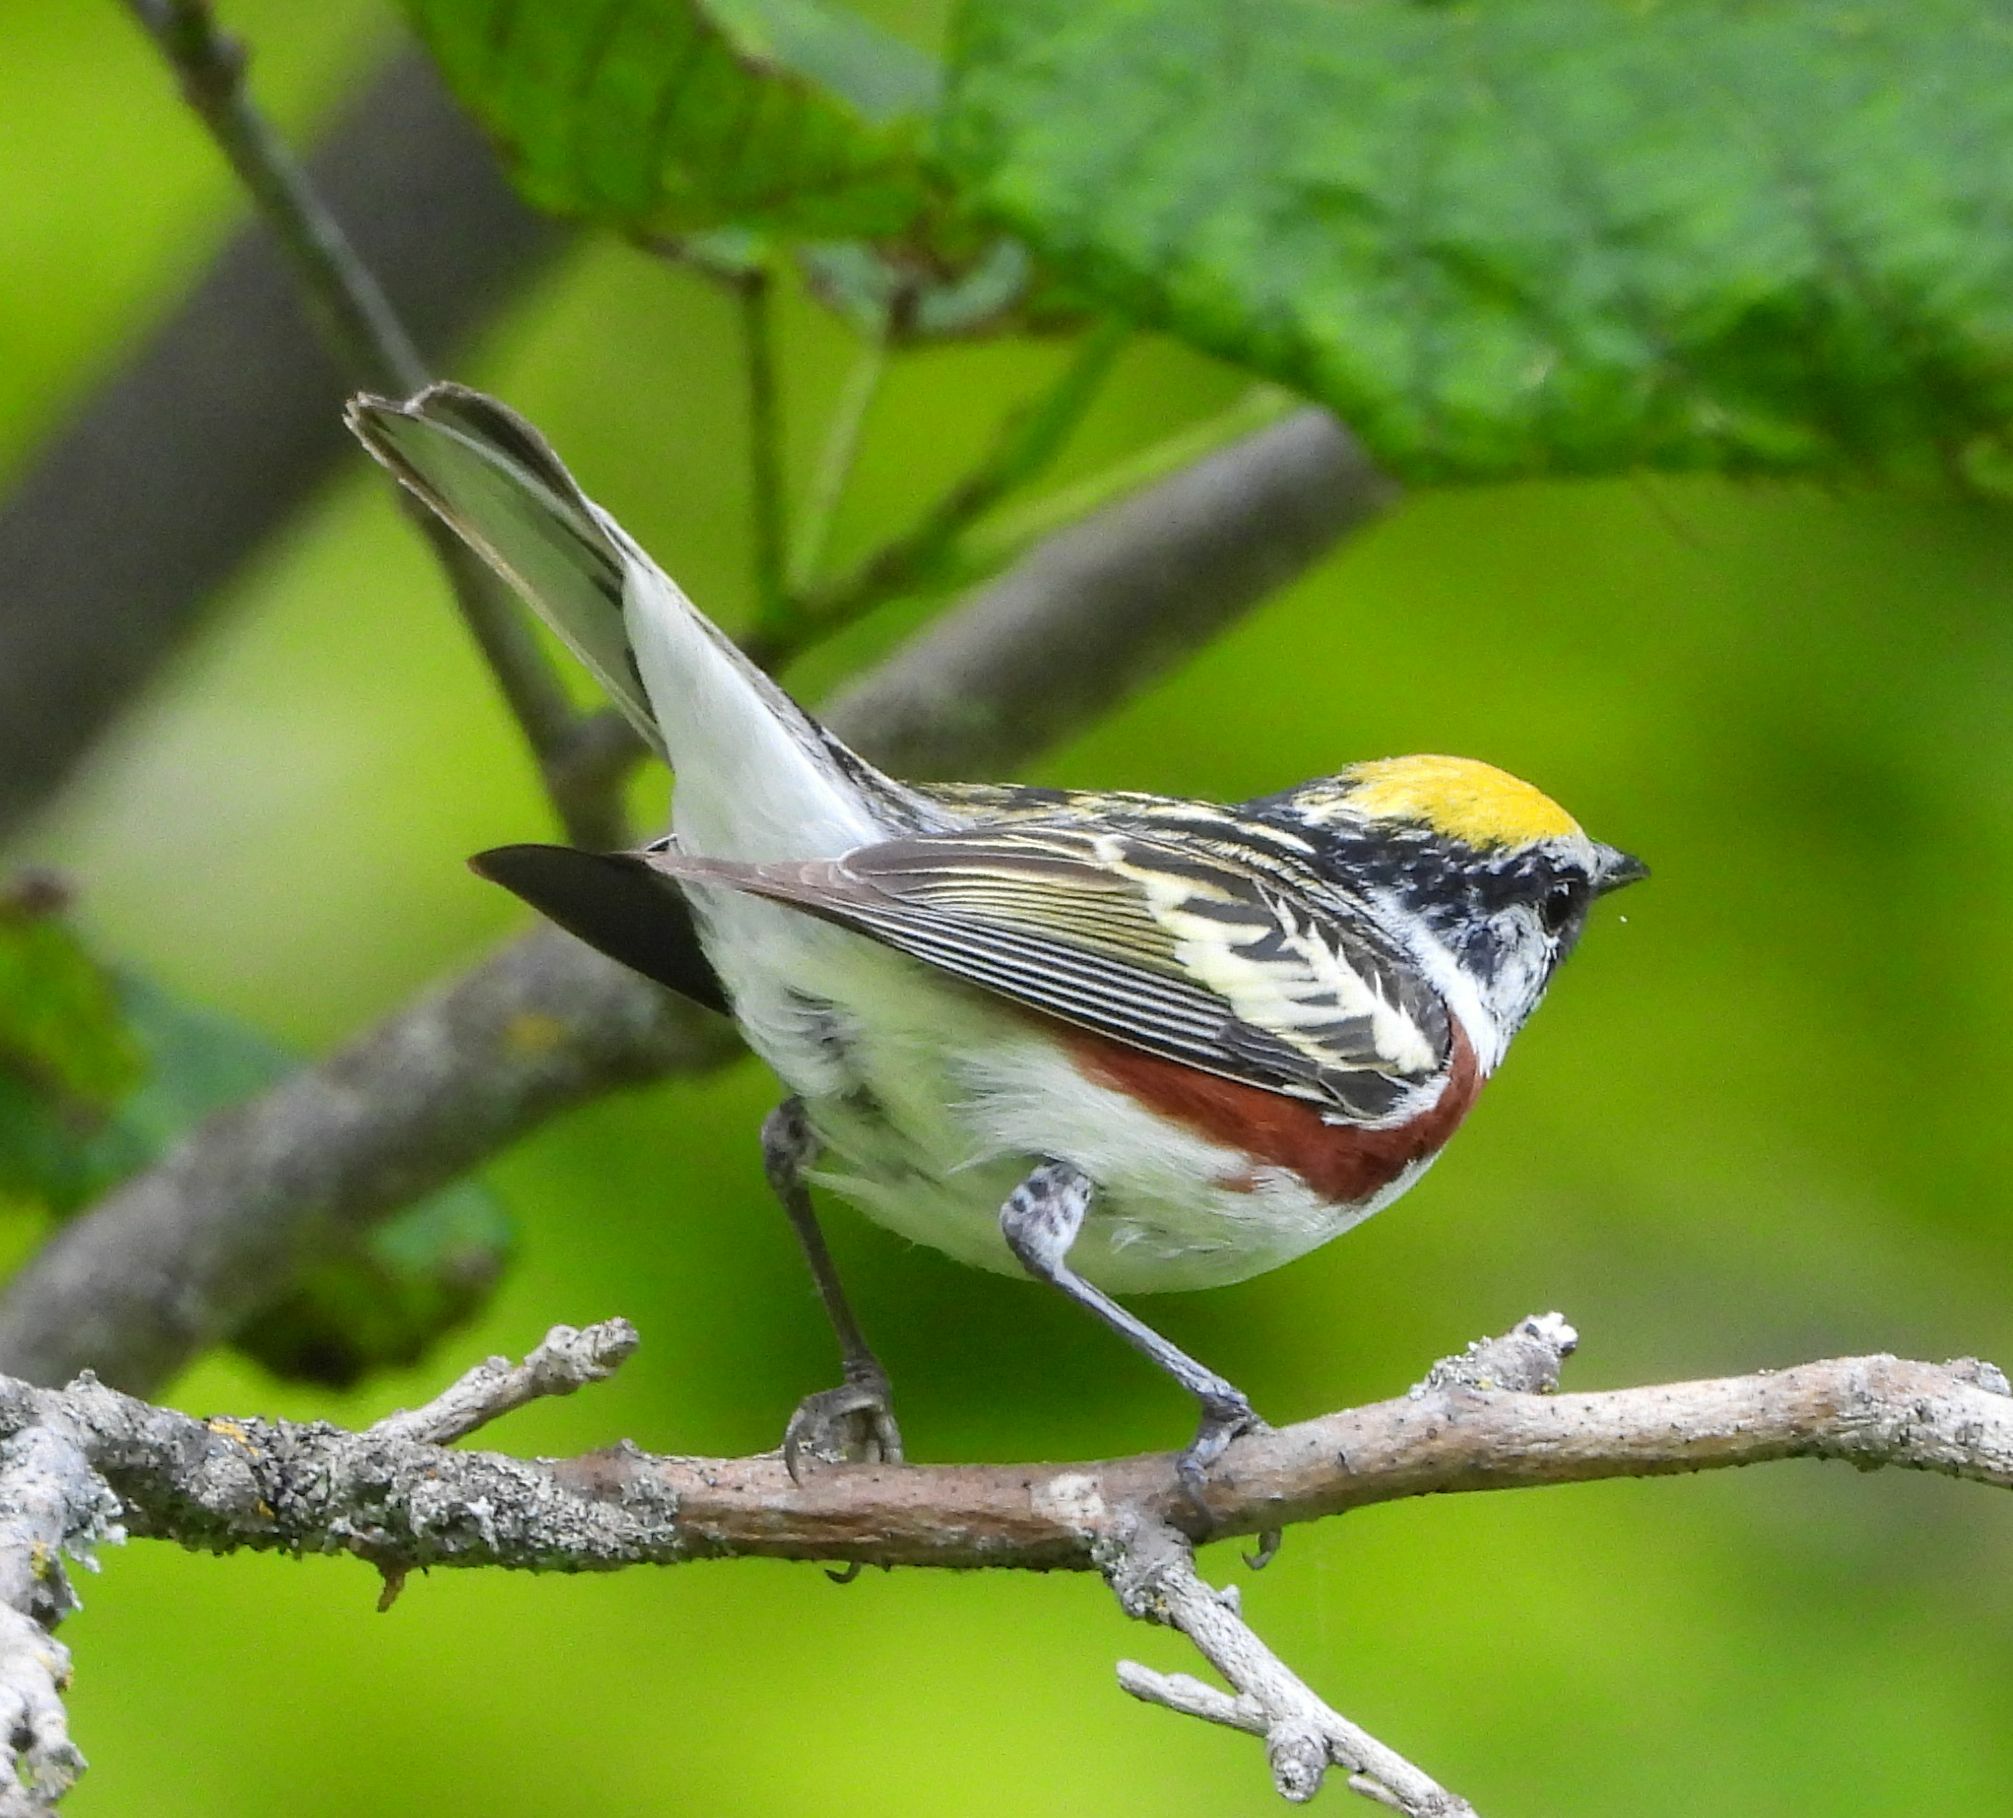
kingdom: Animalia
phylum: Chordata
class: Aves
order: Passeriformes
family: Parulidae
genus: Setophaga
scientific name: Setophaga pensylvanica
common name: Chestnut-sided warbler
